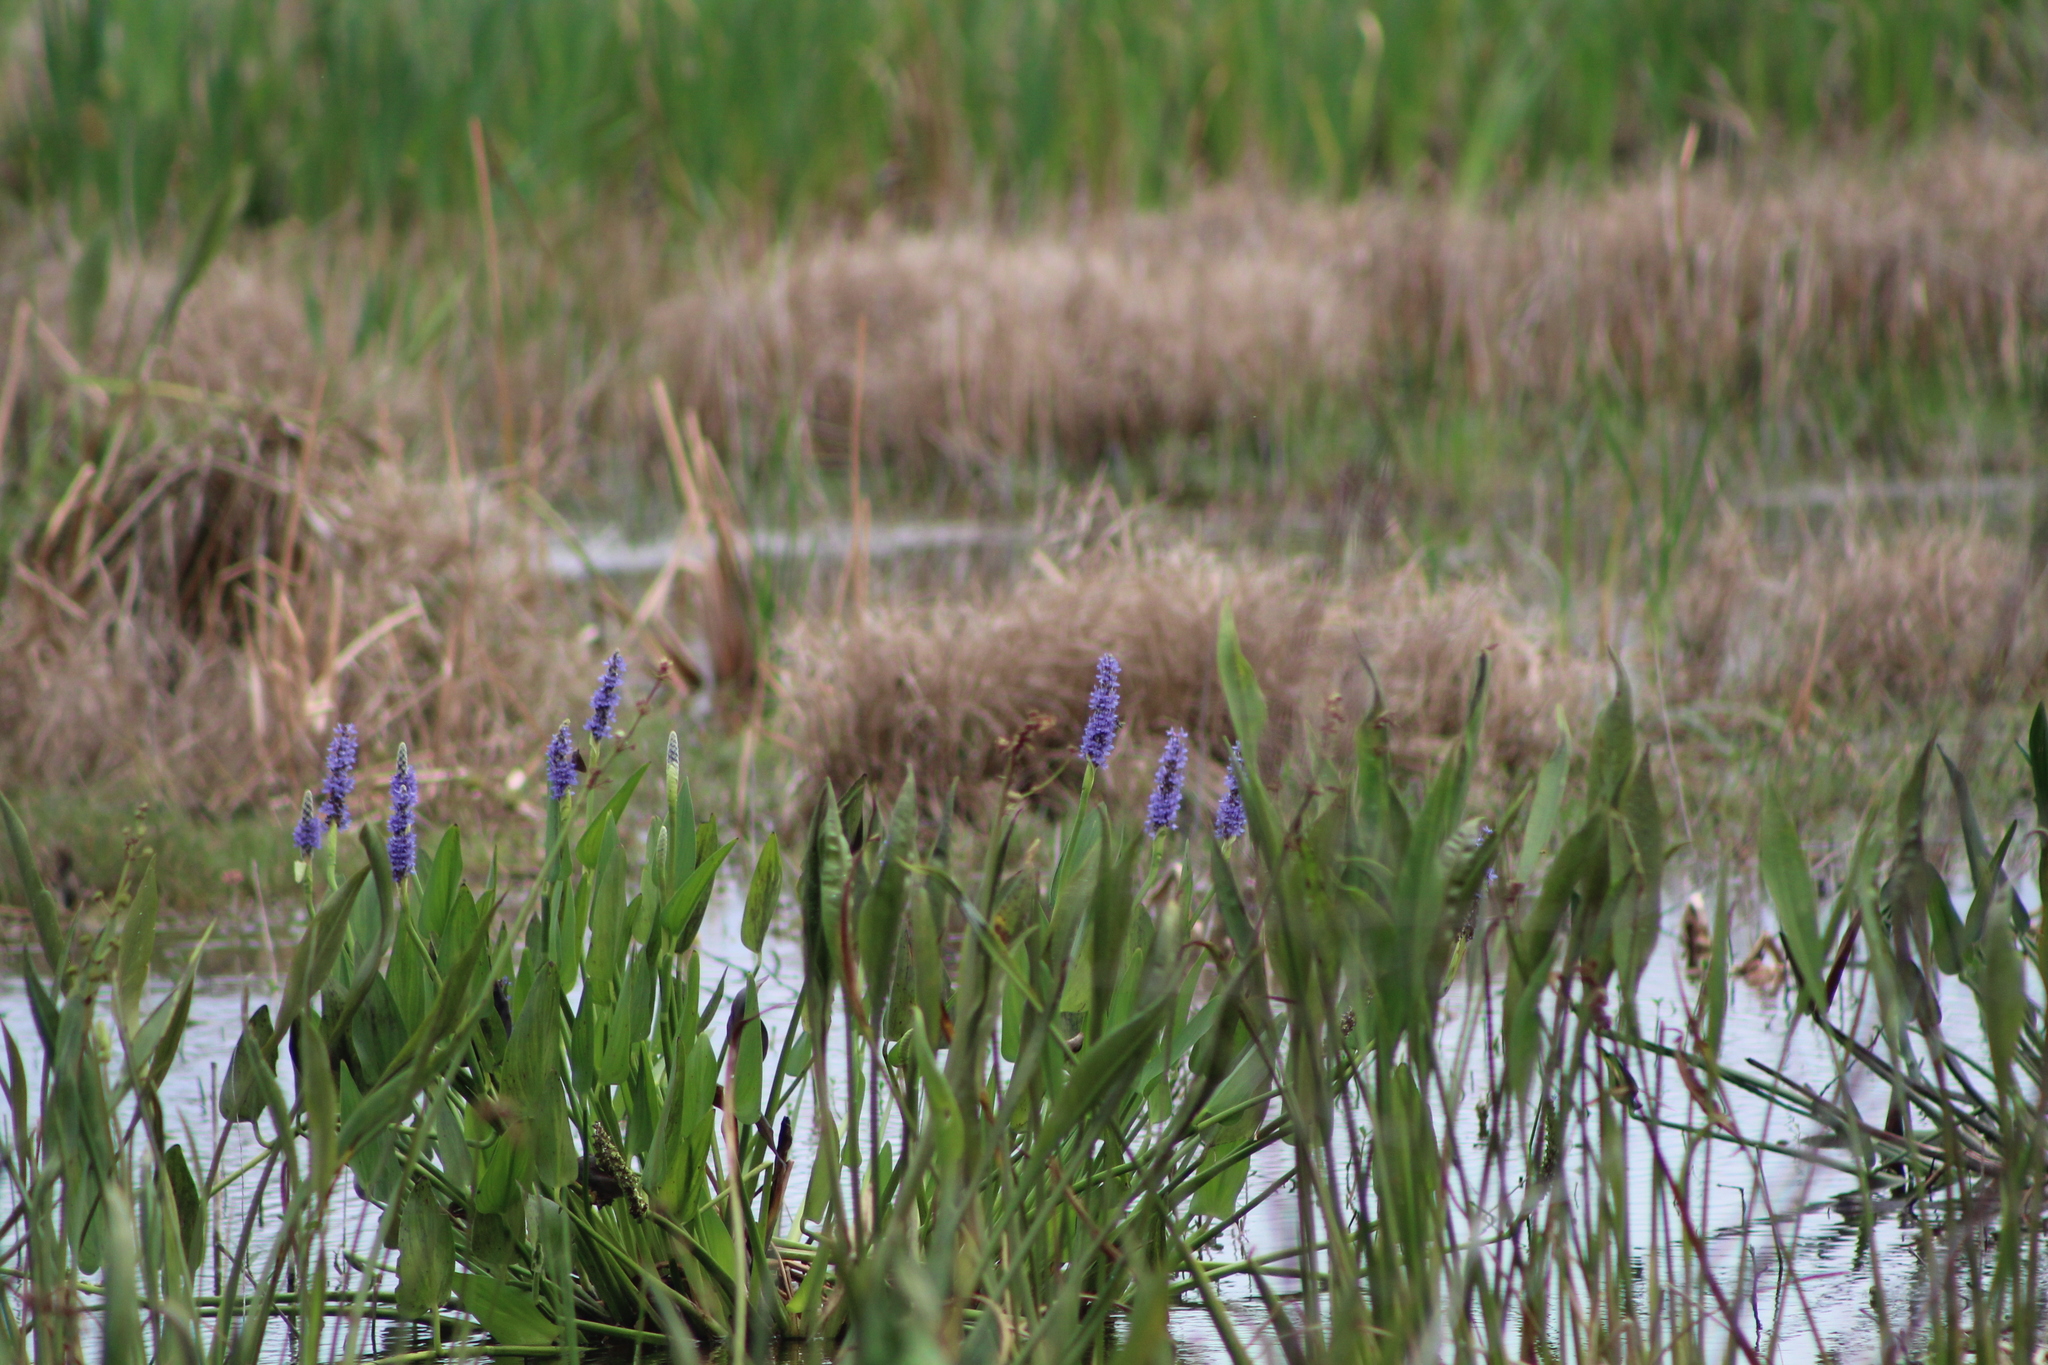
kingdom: Plantae
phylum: Tracheophyta
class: Liliopsida
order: Commelinales
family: Pontederiaceae
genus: Pontederia
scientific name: Pontederia cordata
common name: Pickerelweed
